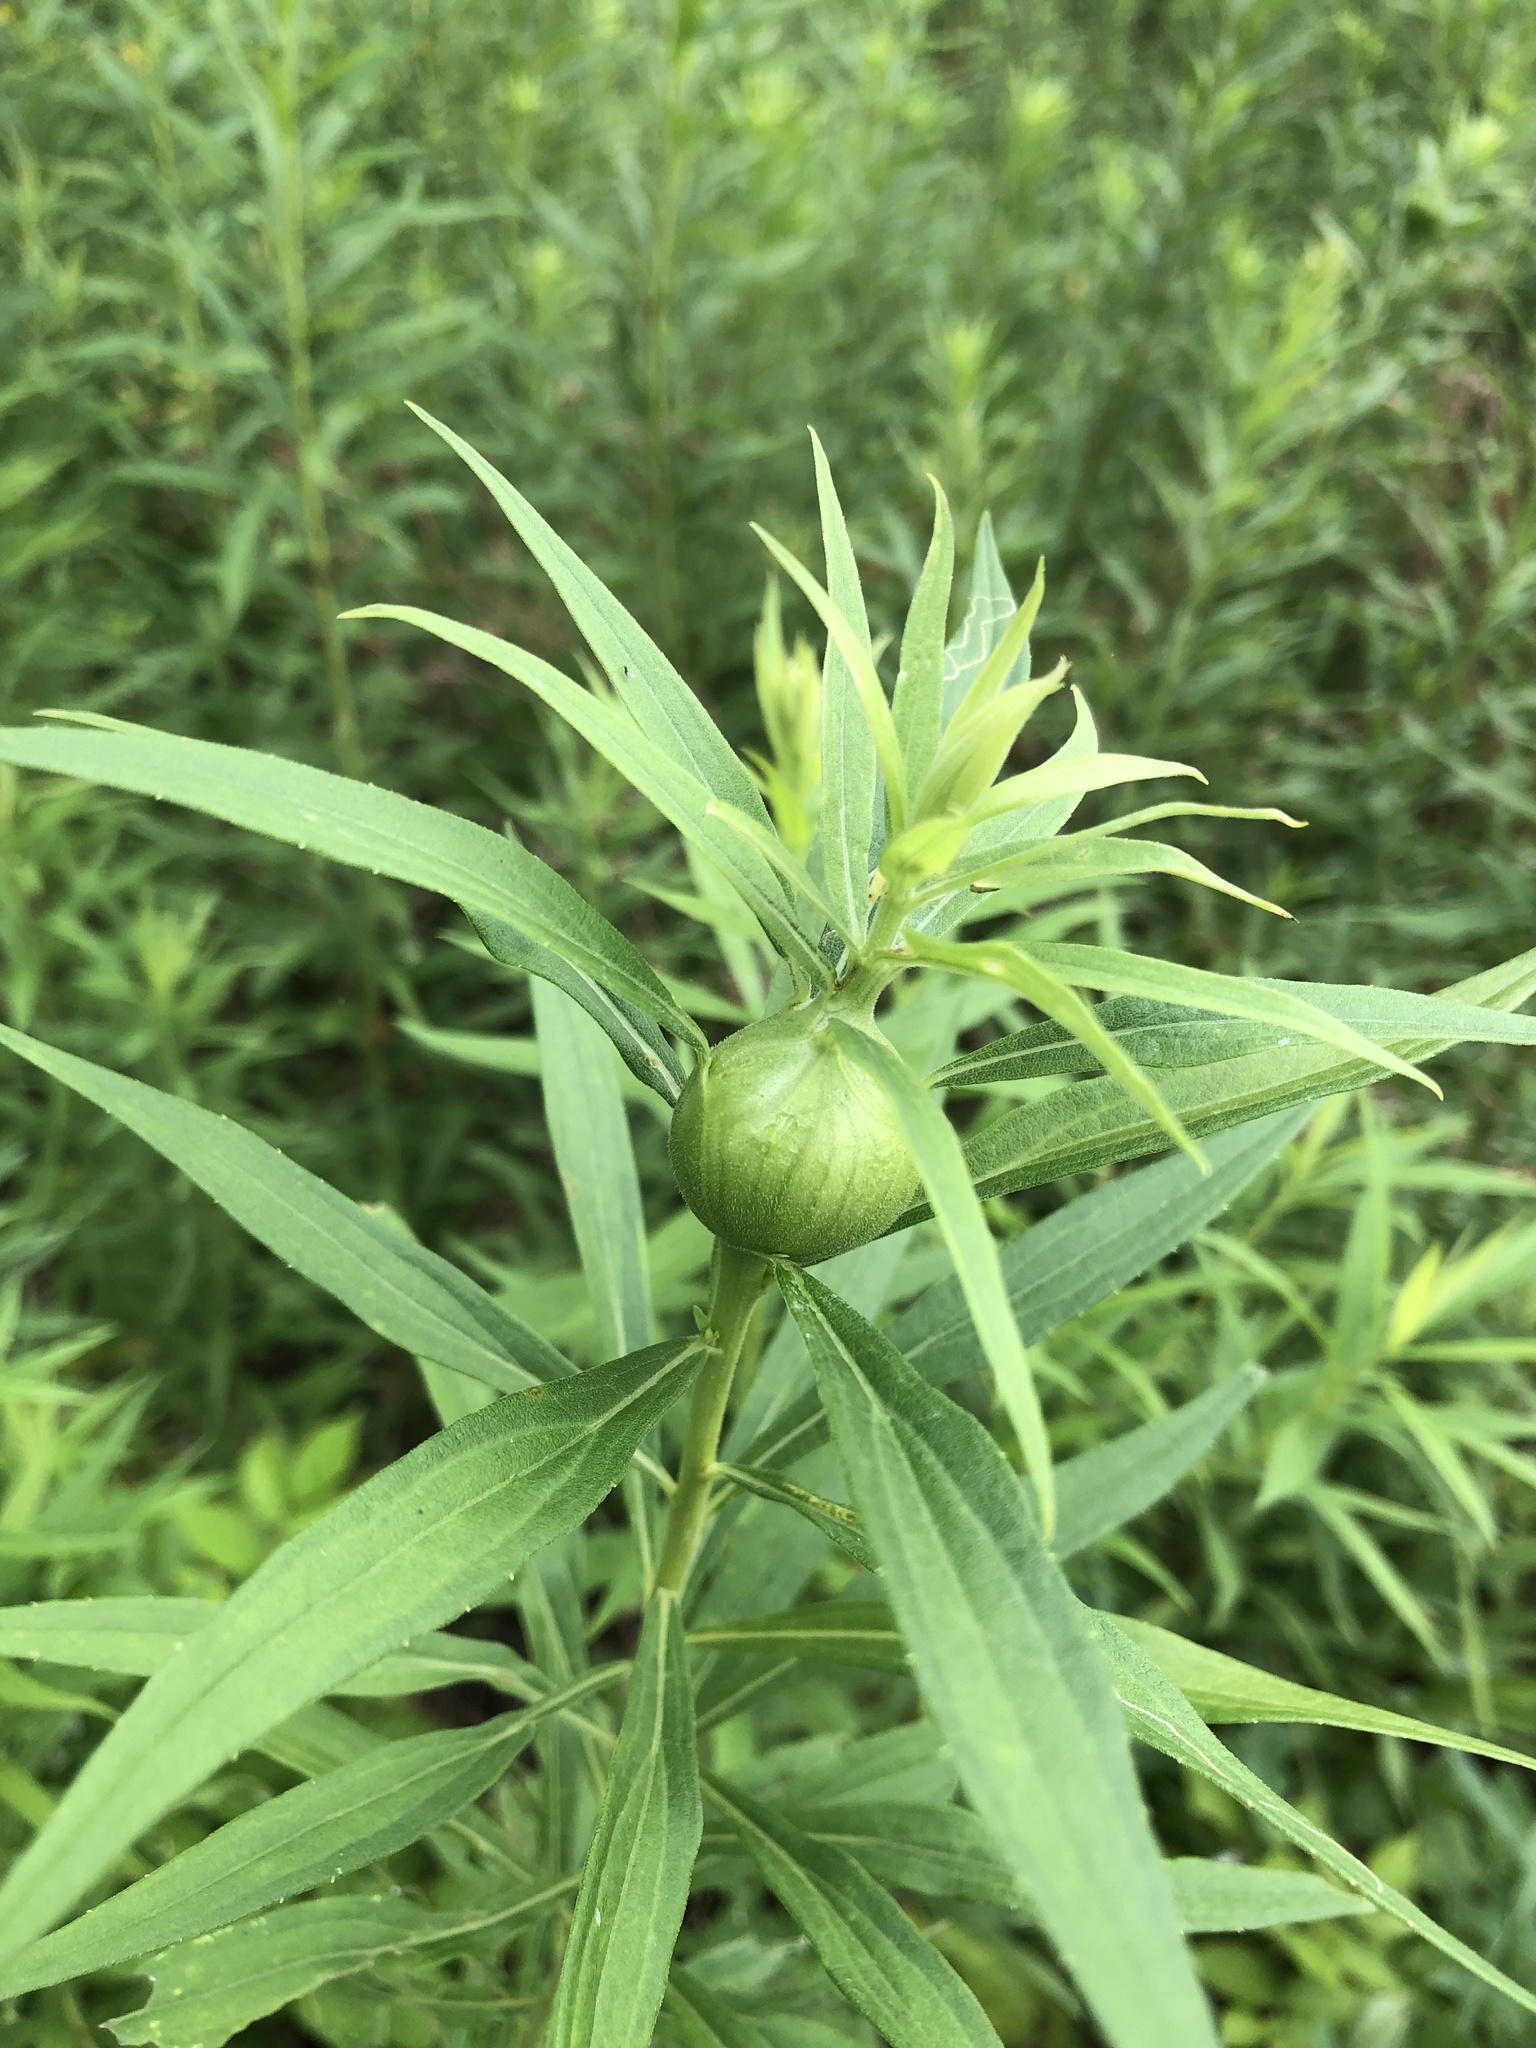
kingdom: Animalia
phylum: Arthropoda
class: Insecta
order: Diptera
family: Tephritidae
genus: Eurosta
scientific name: Eurosta solidaginis
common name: Goldenrod gall fly
